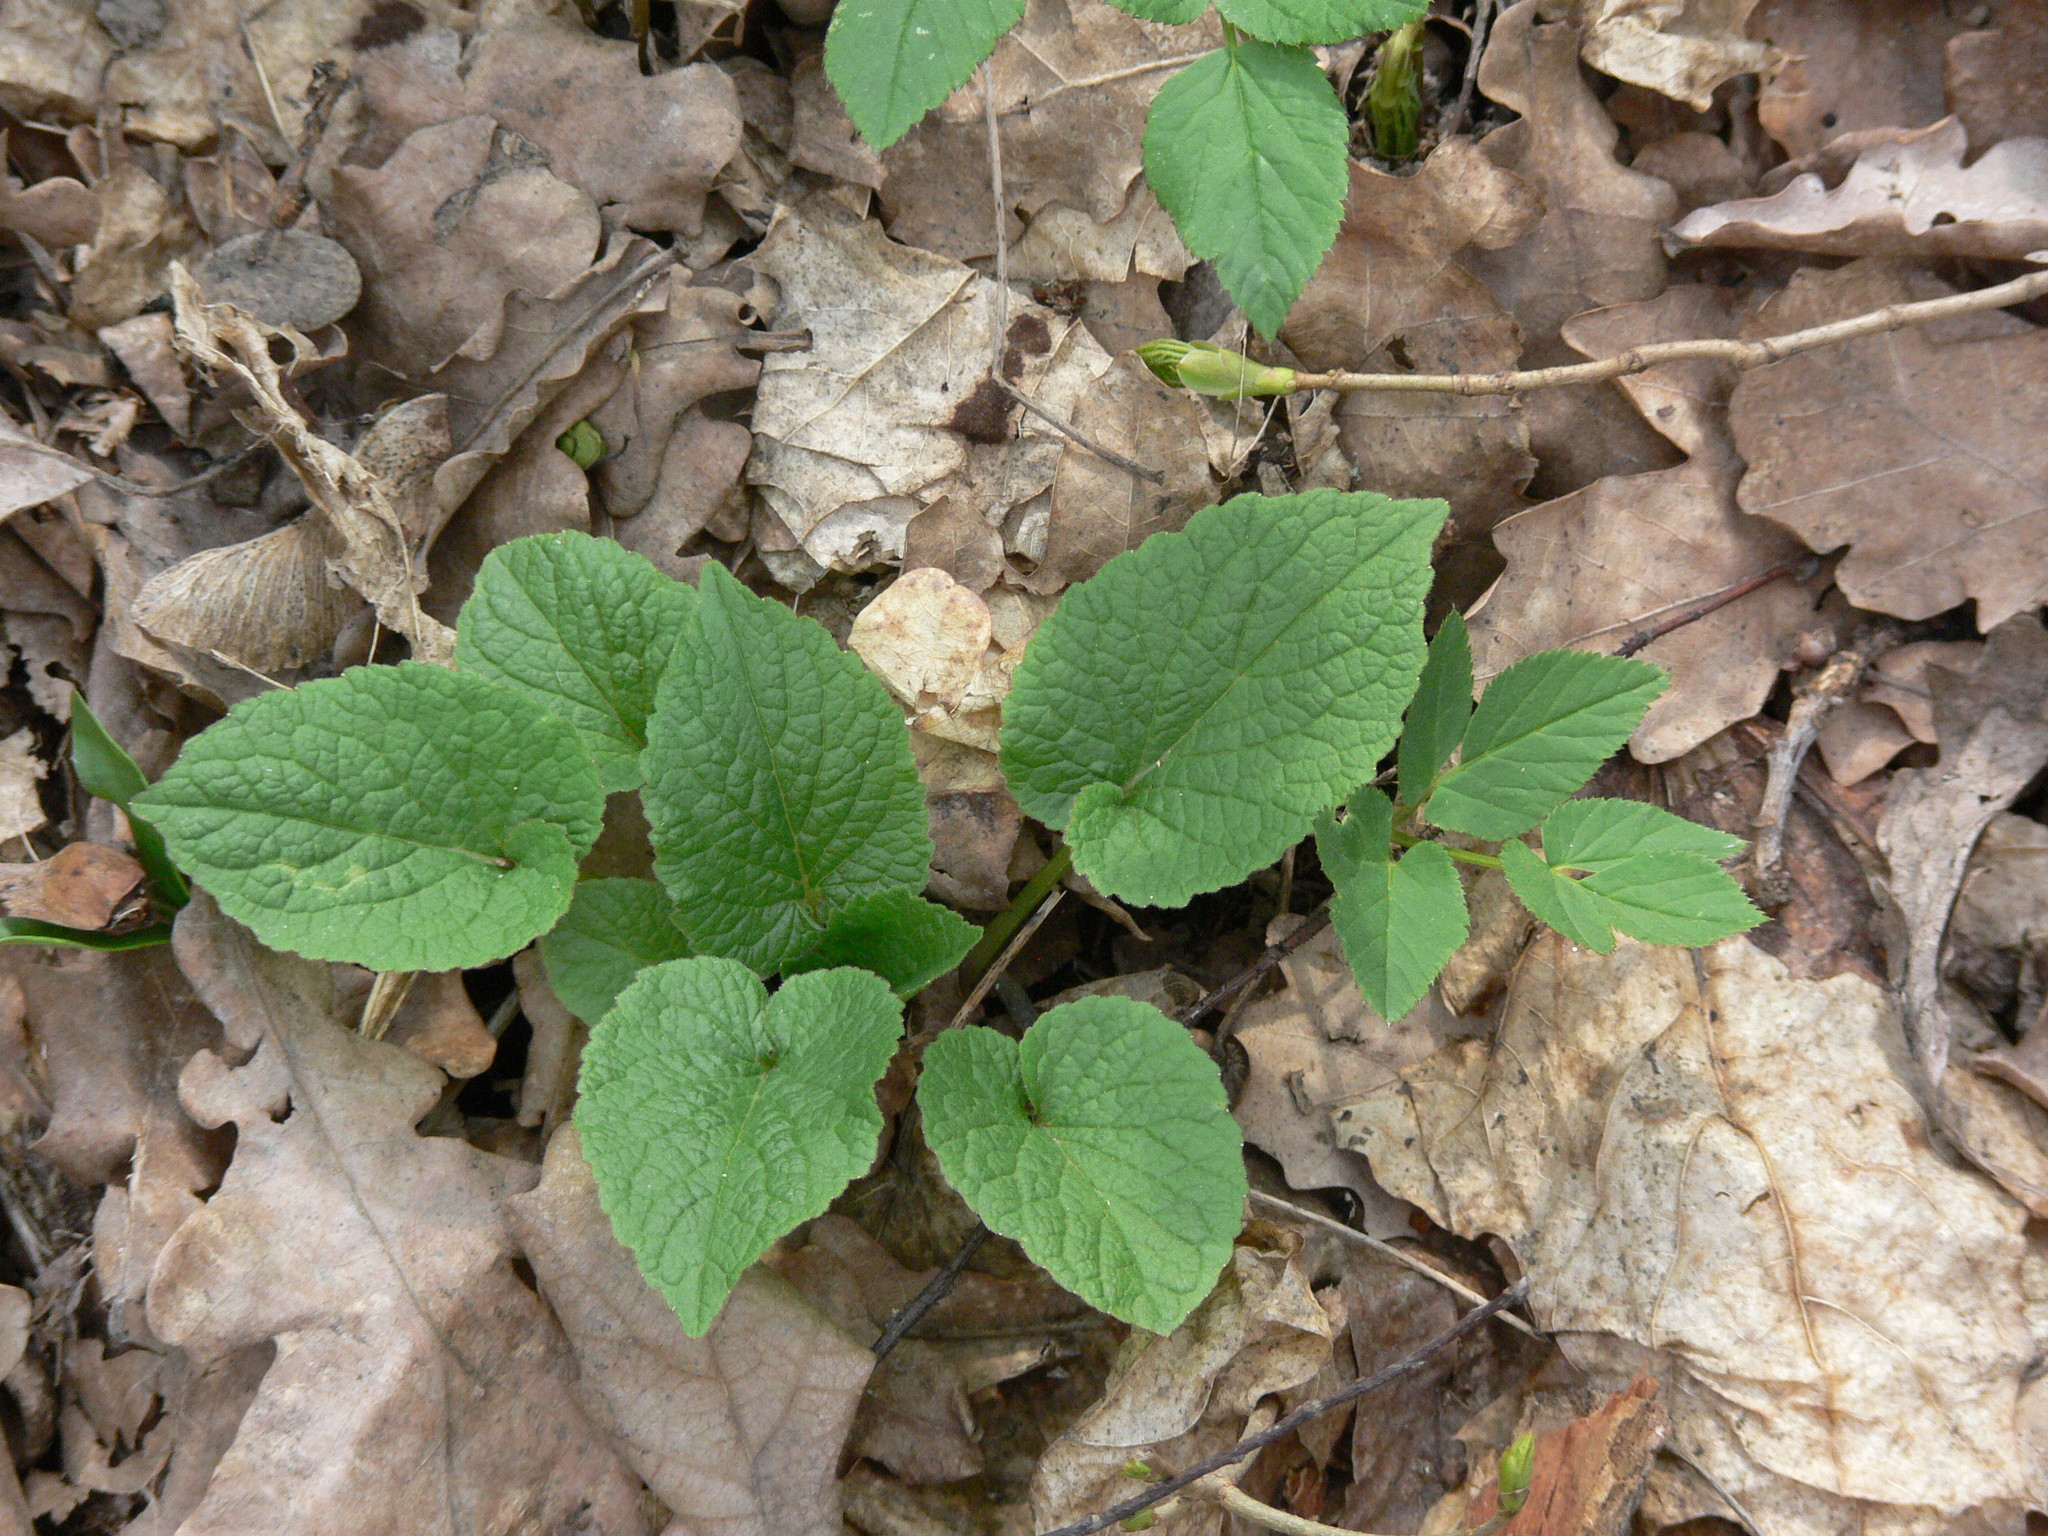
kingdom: Plantae
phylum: Tracheophyta
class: Magnoliopsida
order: Asterales
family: Campanulaceae
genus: Campanula
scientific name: Campanula latifolia
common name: Giant bellflower
